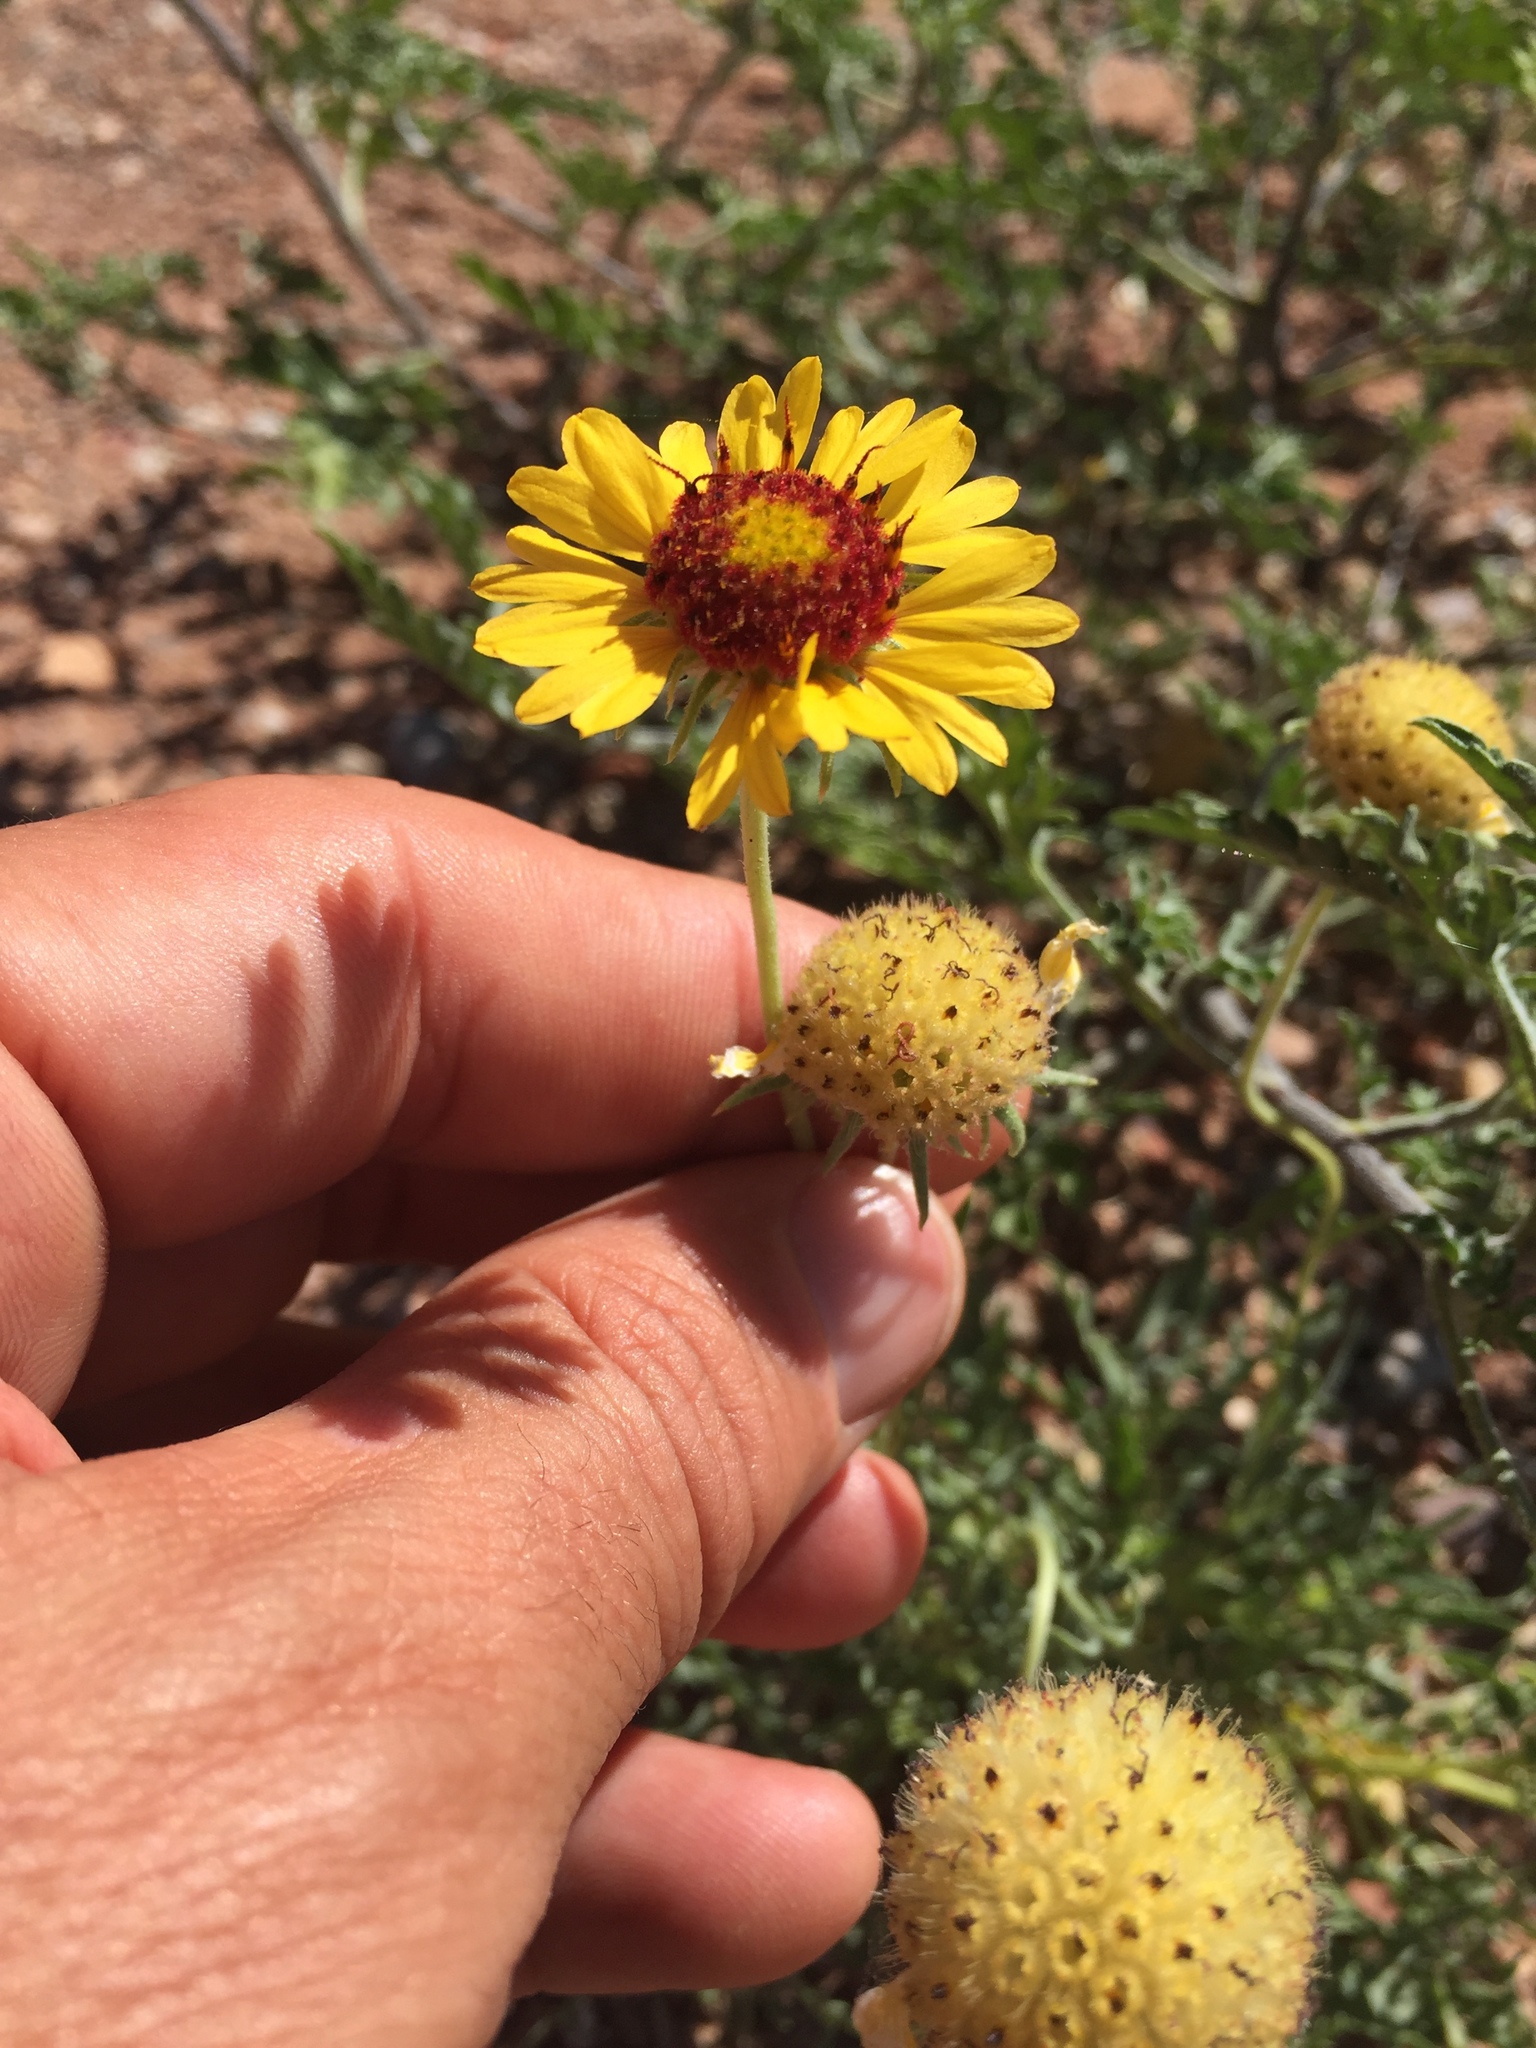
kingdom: Plantae
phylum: Tracheophyta
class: Magnoliopsida
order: Asterales
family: Asteraceae
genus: Gaillardia
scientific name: Gaillardia pinnatifida
